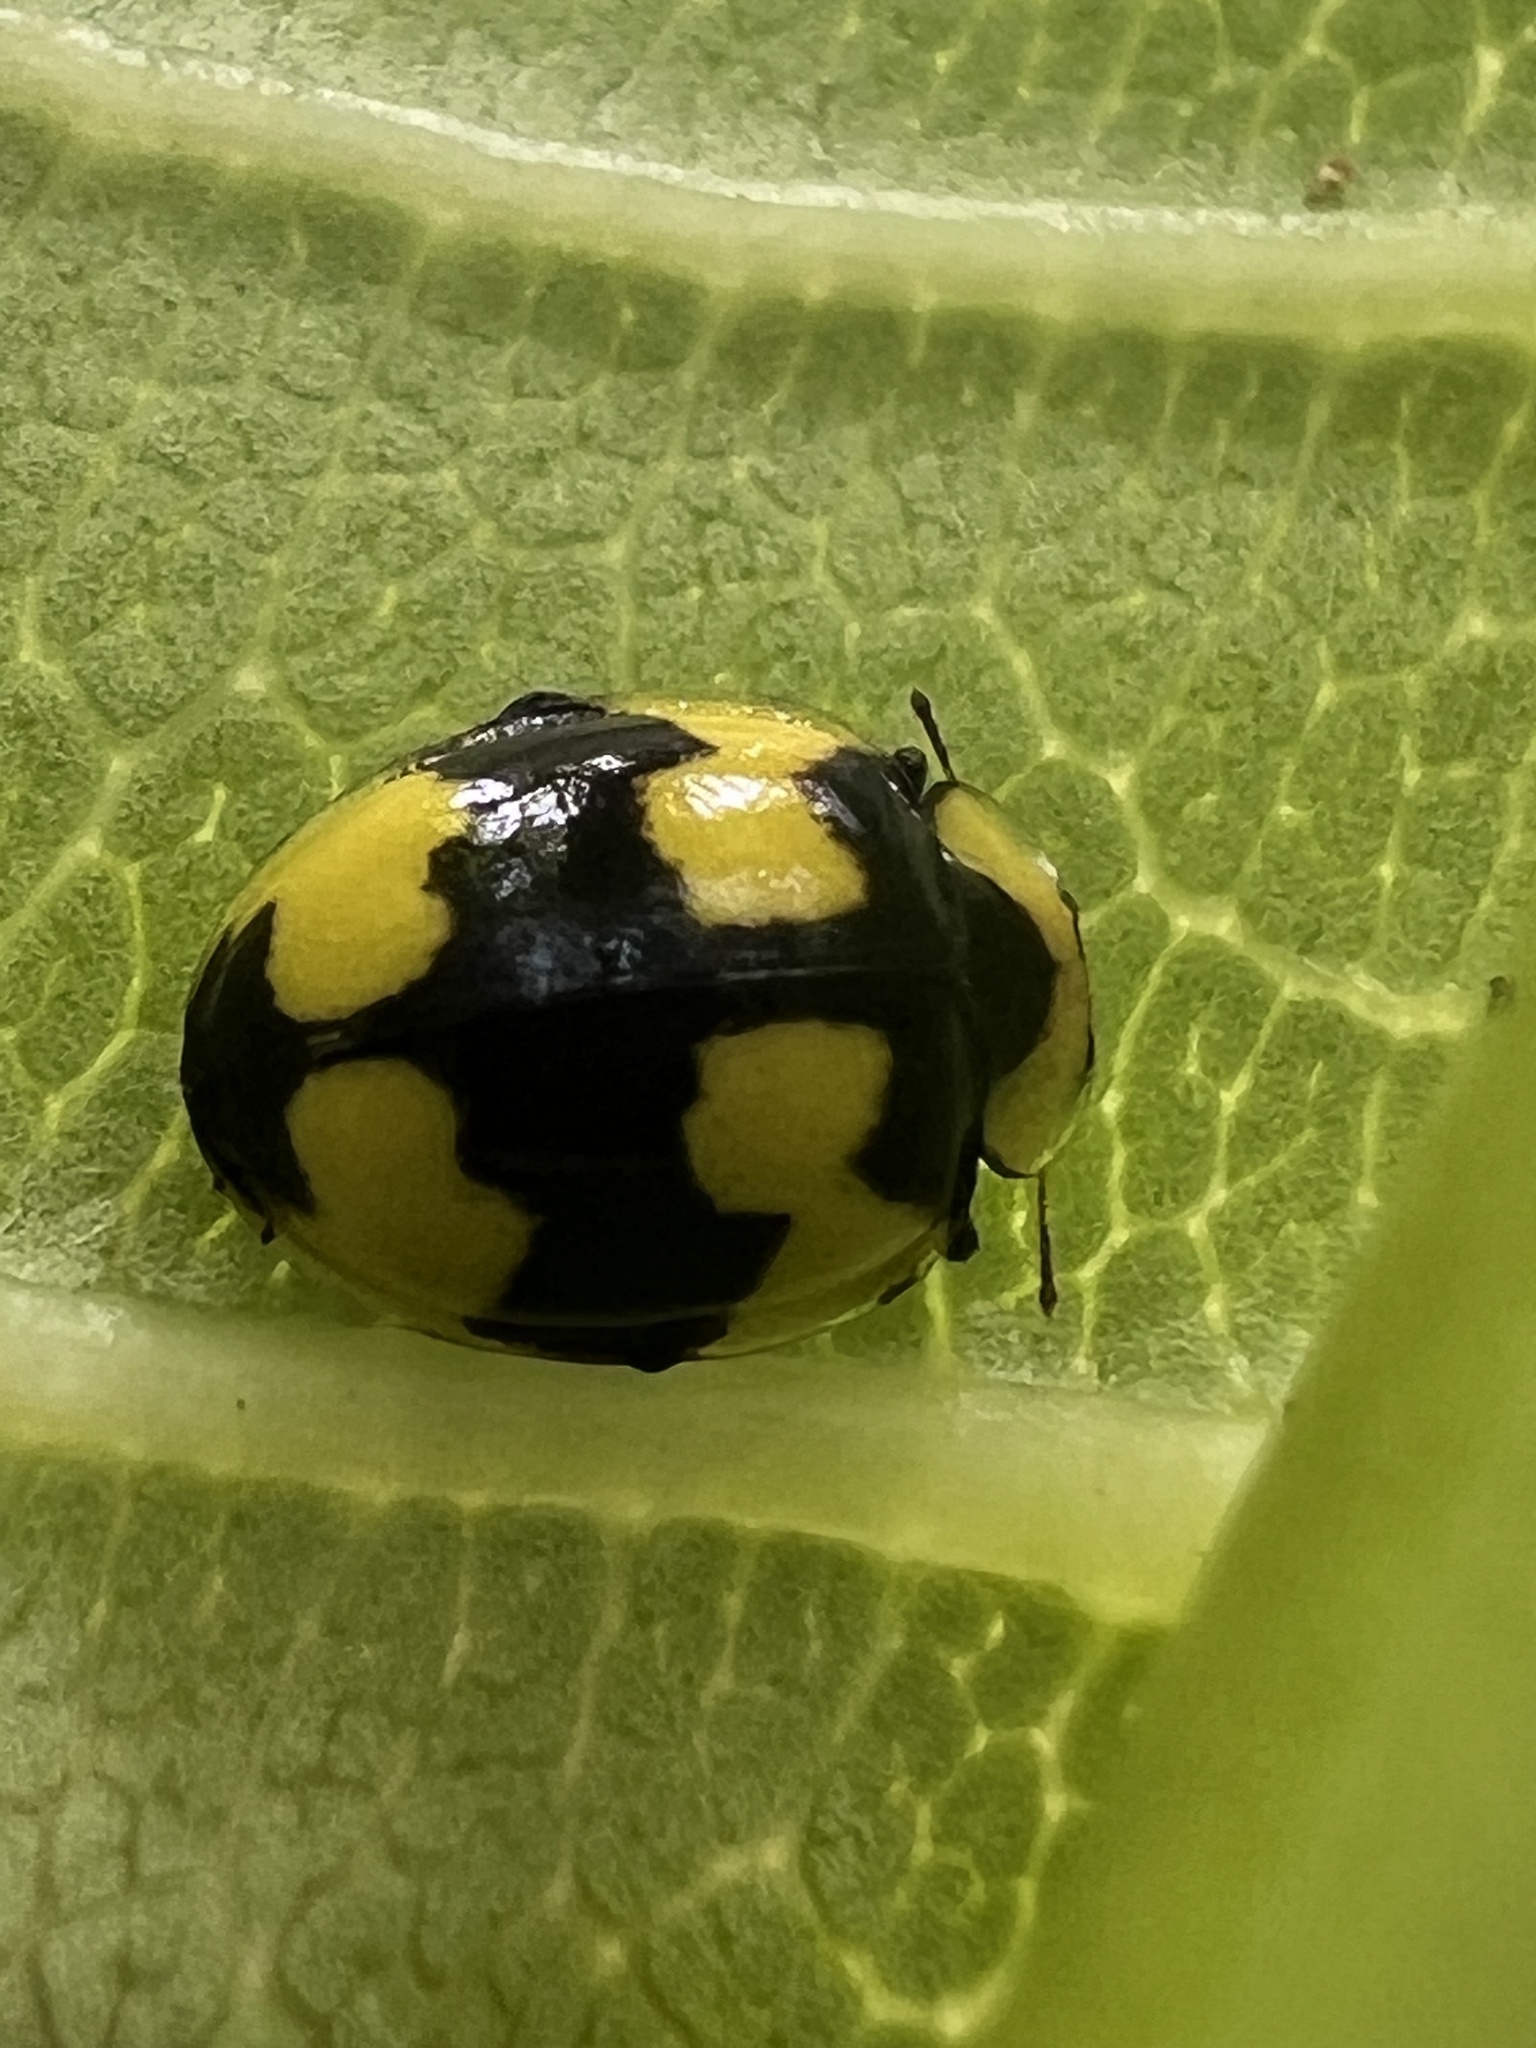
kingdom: Animalia
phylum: Arthropoda
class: Insecta
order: Coleoptera
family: Coccinellidae
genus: Illeis
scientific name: Illeis galbula
